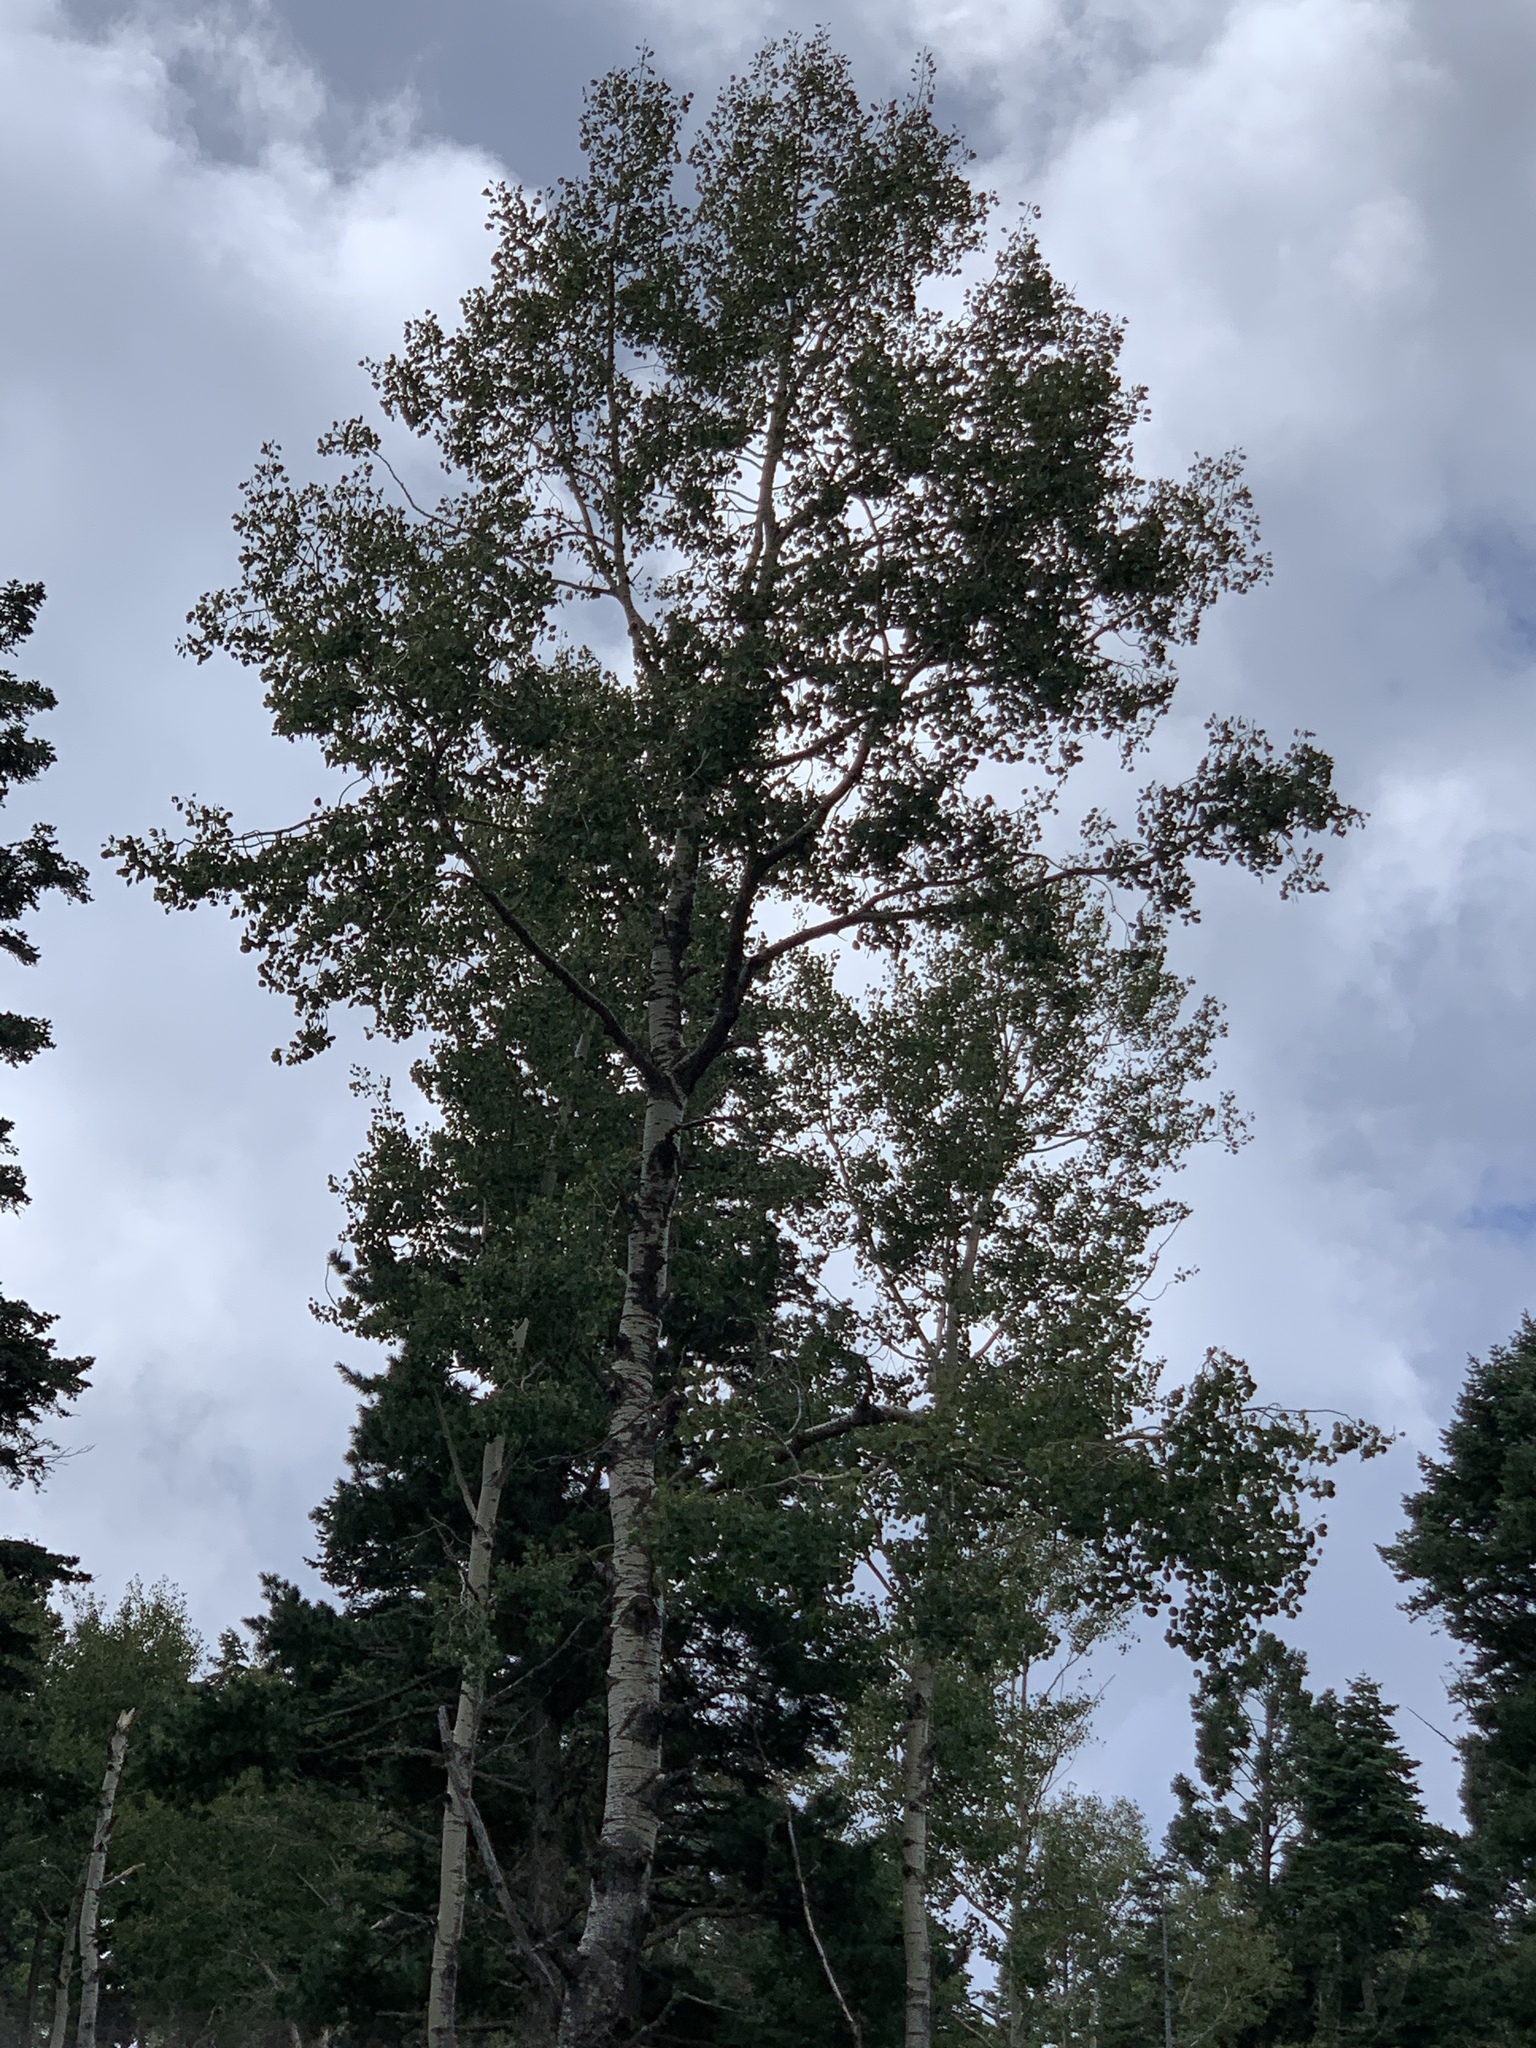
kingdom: Plantae
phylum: Tracheophyta
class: Magnoliopsida
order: Malpighiales
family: Salicaceae
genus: Populus
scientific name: Populus tremuloides
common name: Quaking aspen
